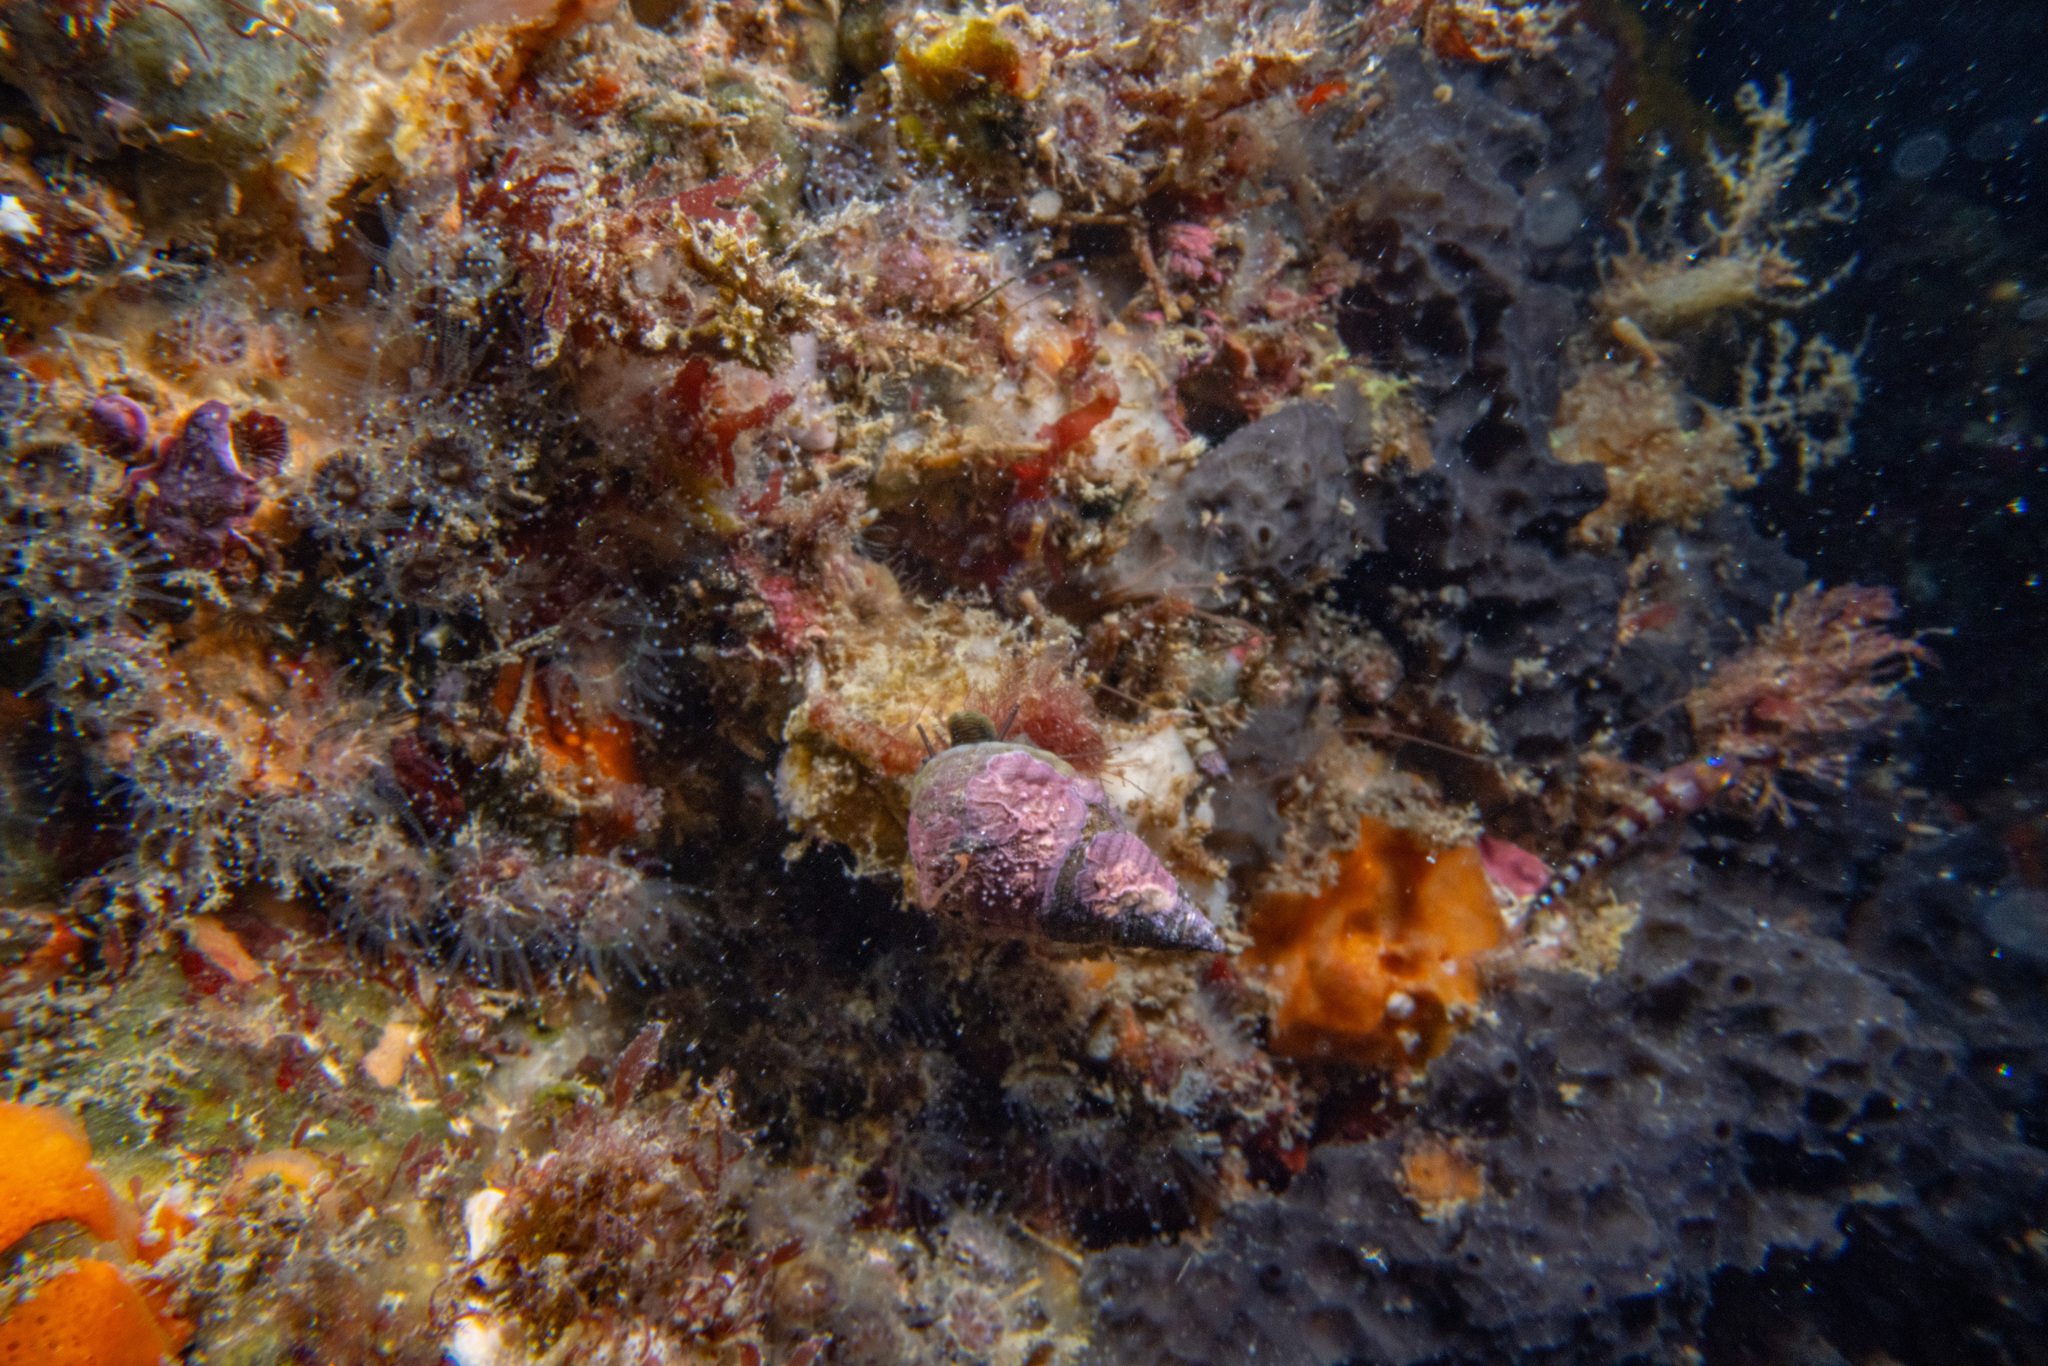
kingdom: Animalia
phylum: Mollusca
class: Gastropoda
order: Trochida
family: Trochidae
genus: Micrelenchus
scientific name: Micrelenchus purpureus
